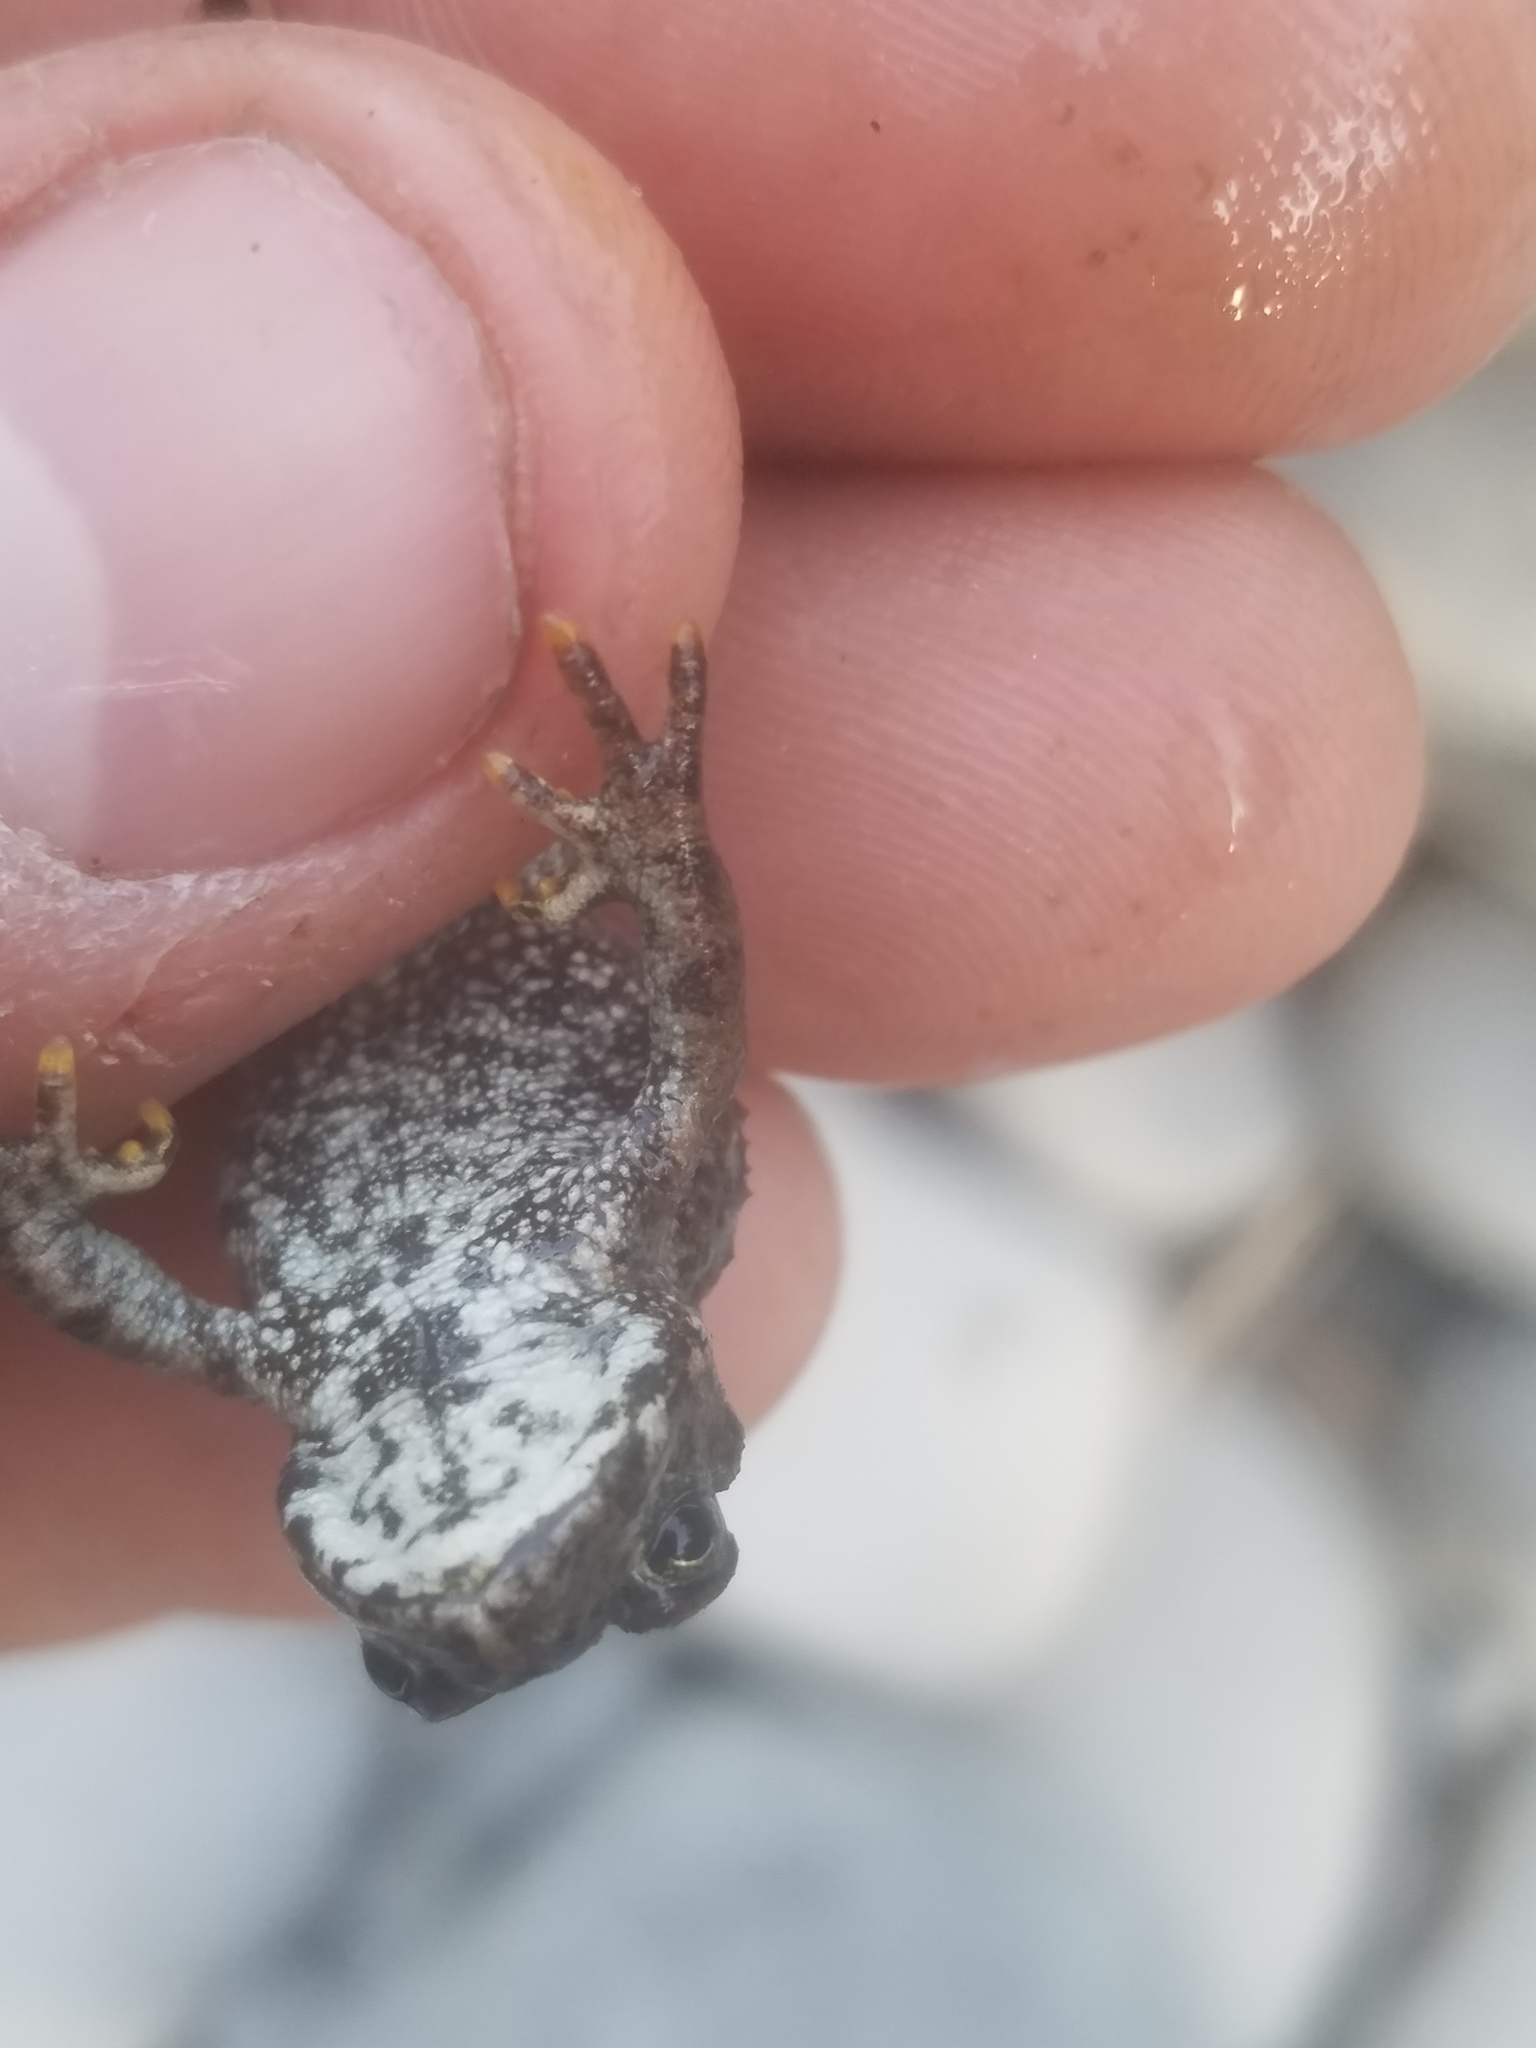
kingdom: Animalia
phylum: Chordata
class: Amphibia
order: Anura
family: Bufonidae
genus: Anaxyrus
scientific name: Anaxyrus boreas
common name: Western toad
